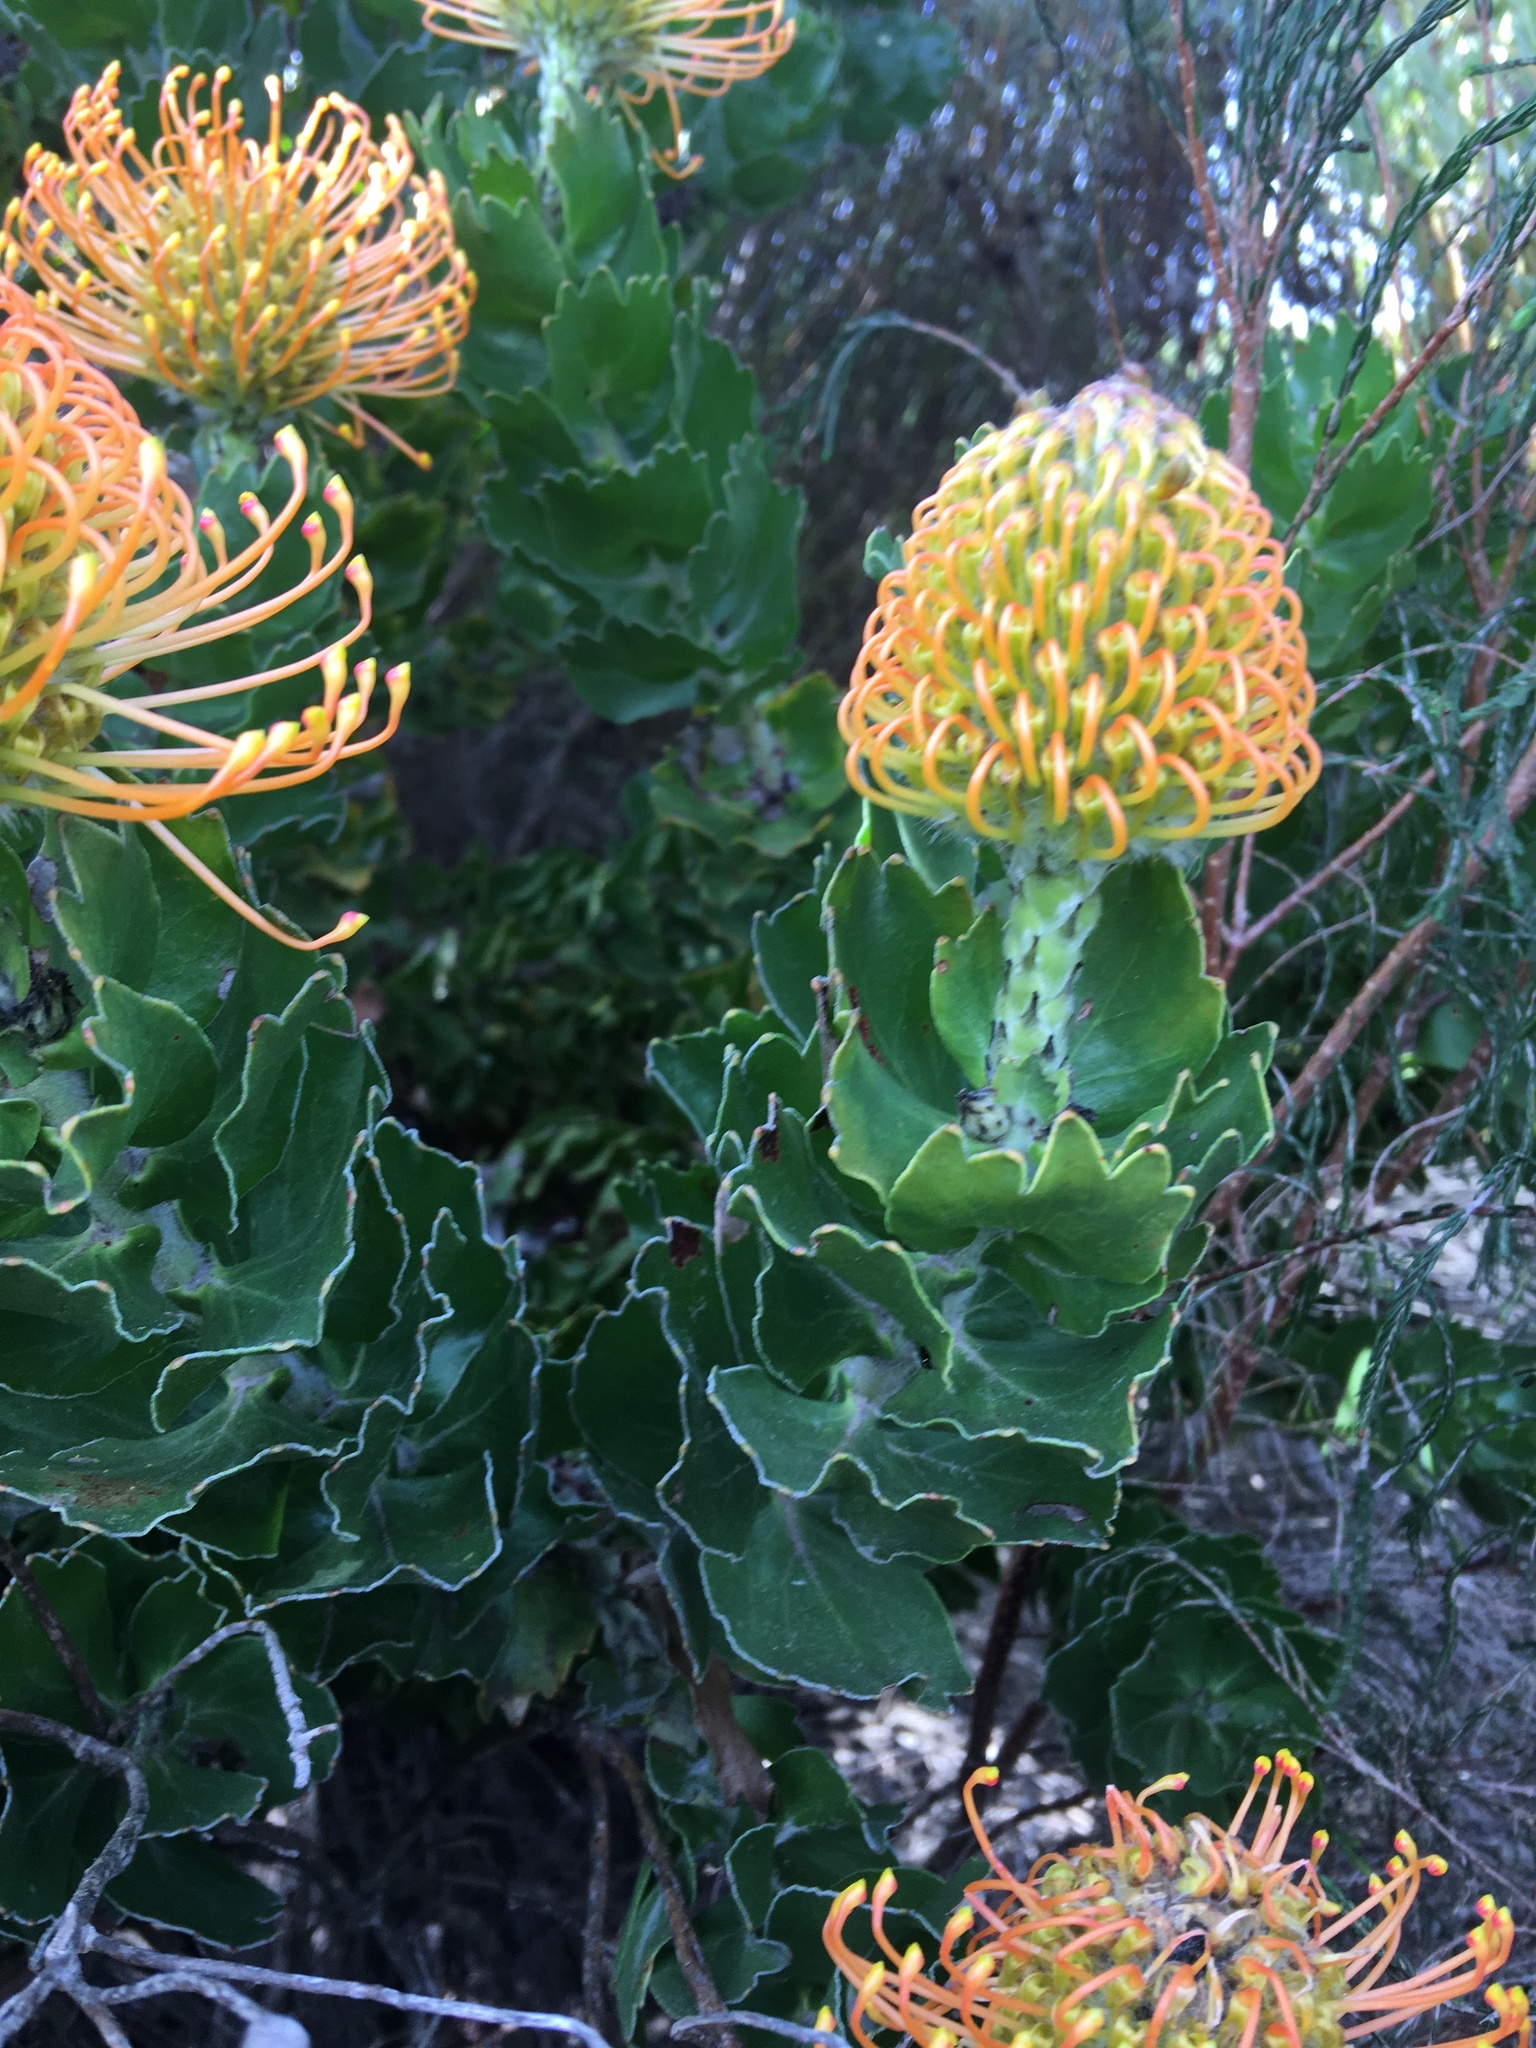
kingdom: Plantae
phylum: Tracheophyta
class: Magnoliopsida
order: Proteales
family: Proteaceae
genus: Leucospermum
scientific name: Leucospermum patersonii
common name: False tree pincushion
